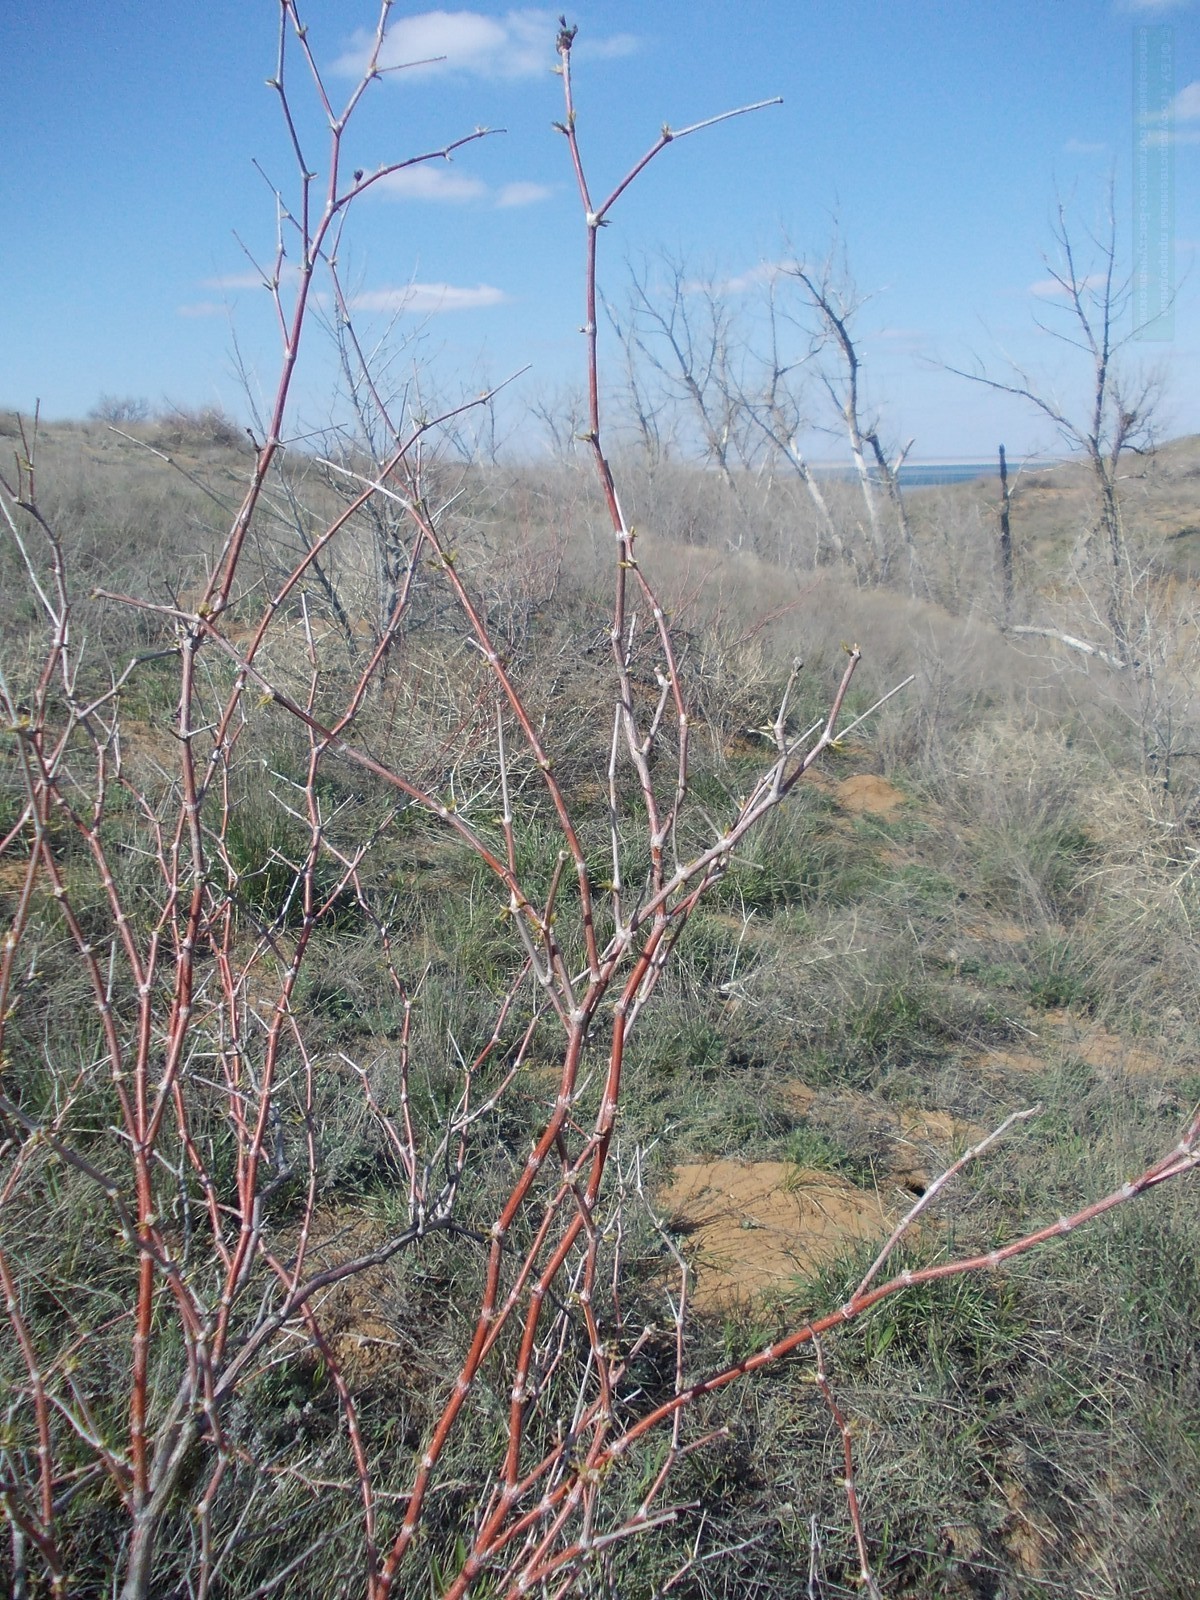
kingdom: Plantae
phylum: Tracheophyta
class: Magnoliopsida
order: Caryophyllales
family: Polygonaceae
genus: Calligonum
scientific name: Calligonum aphyllum
